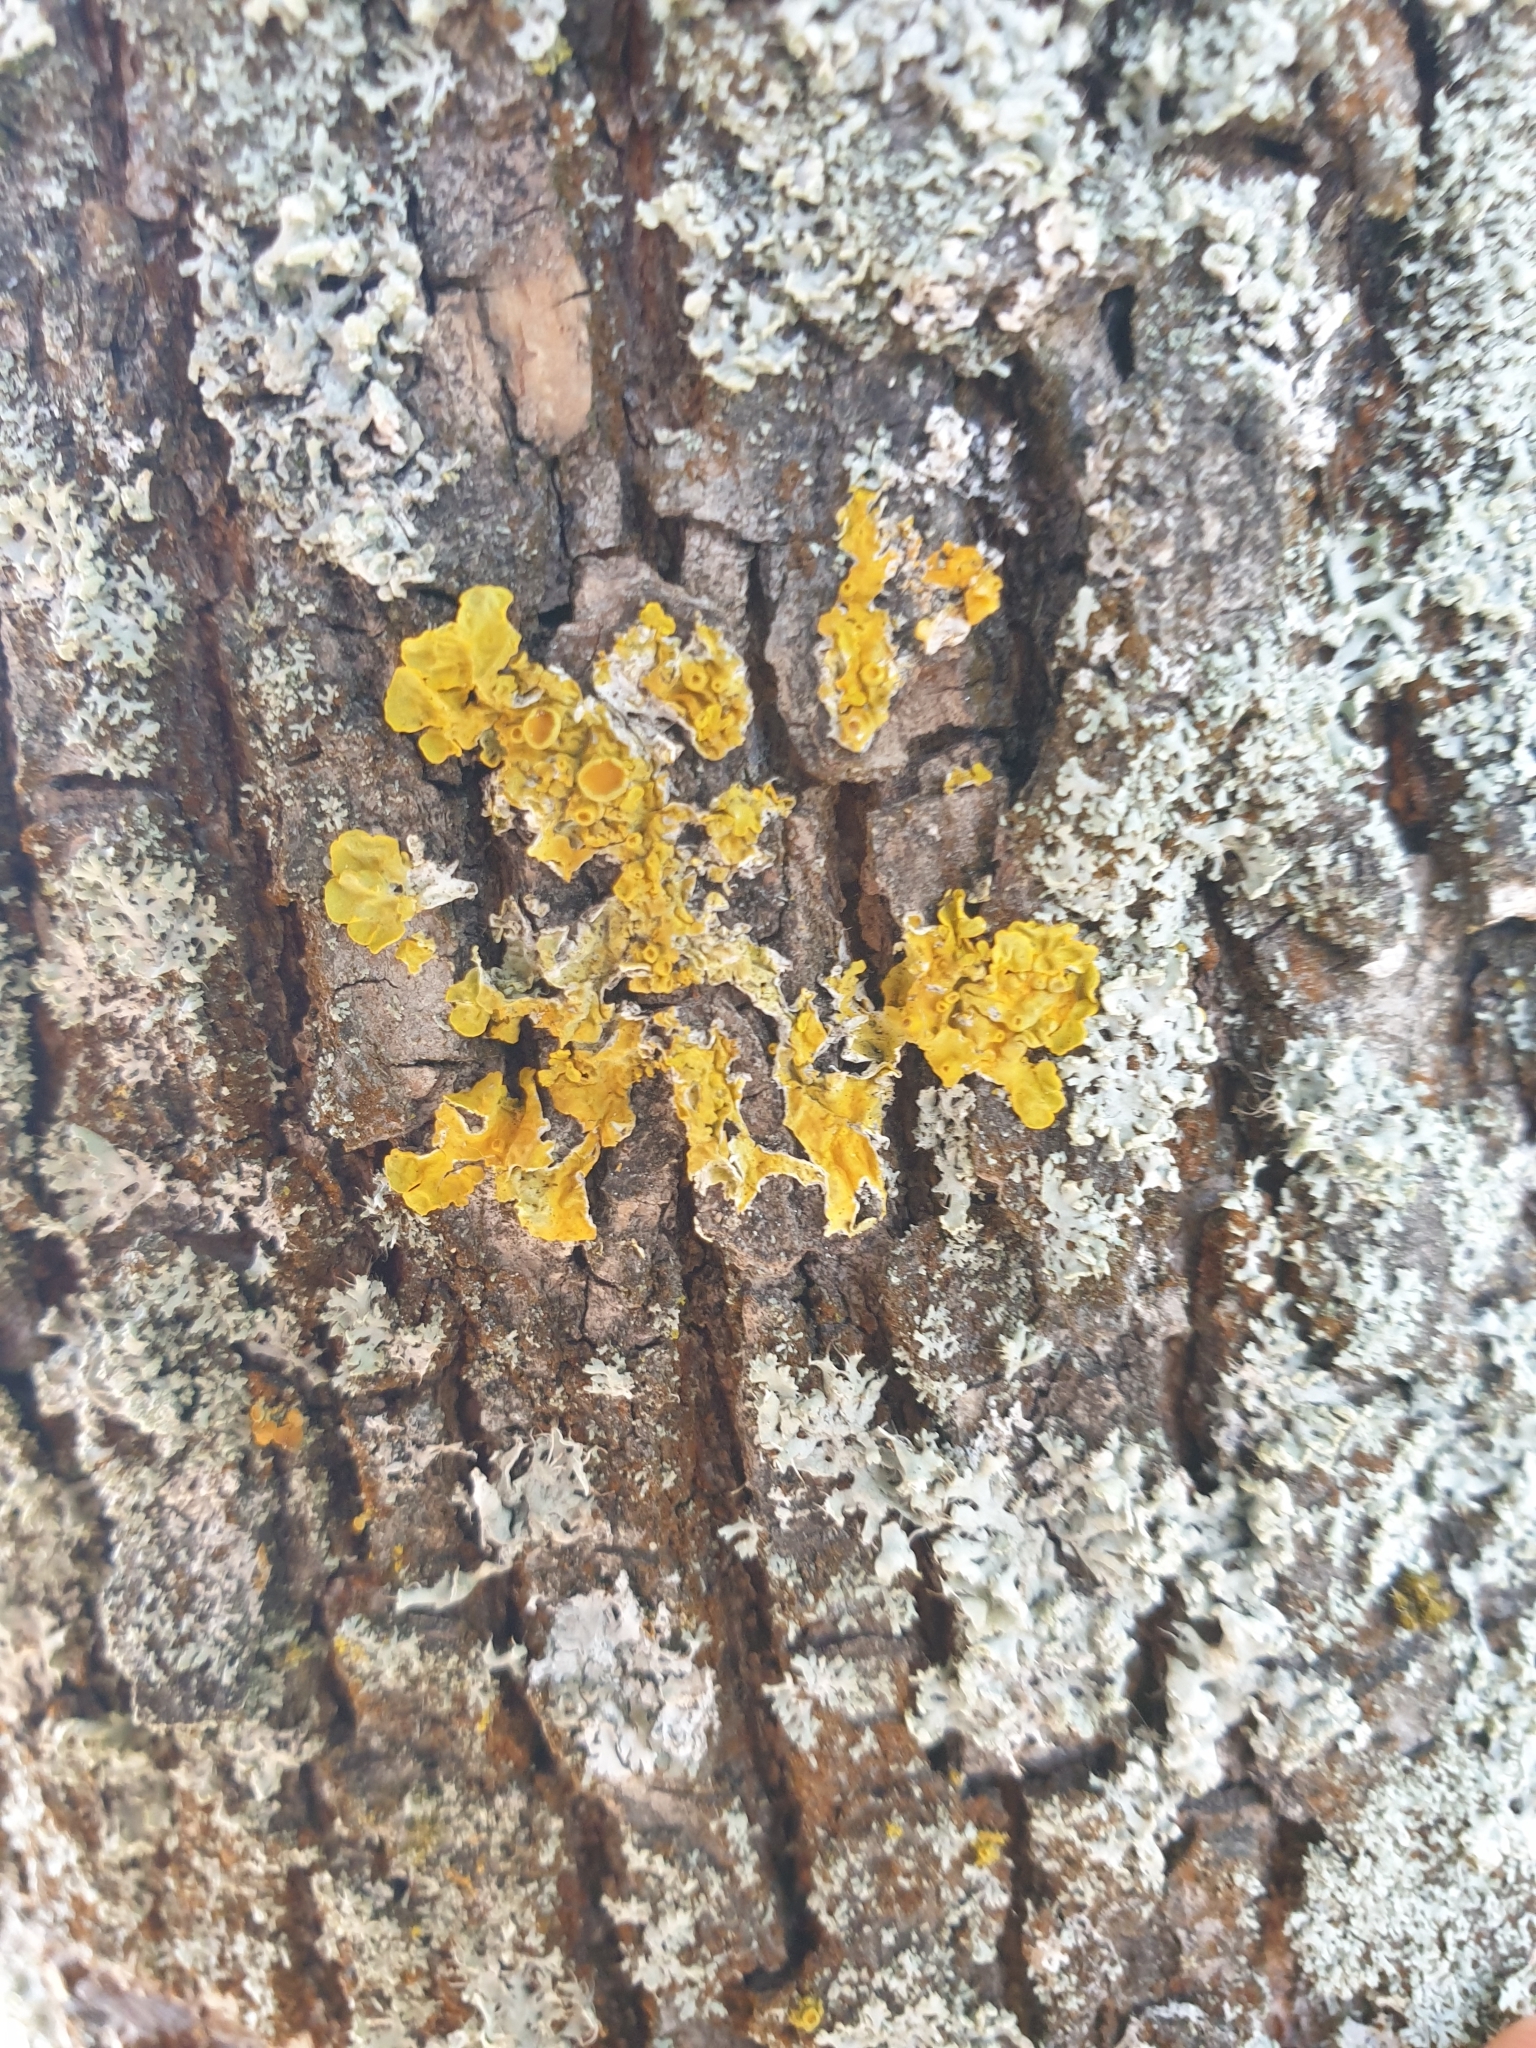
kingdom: Fungi
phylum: Ascomycota
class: Lecanoromycetes
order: Teloschistales
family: Teloschistaceae
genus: Xanthoria
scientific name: Xanthoria parietina
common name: Common orange lichen
